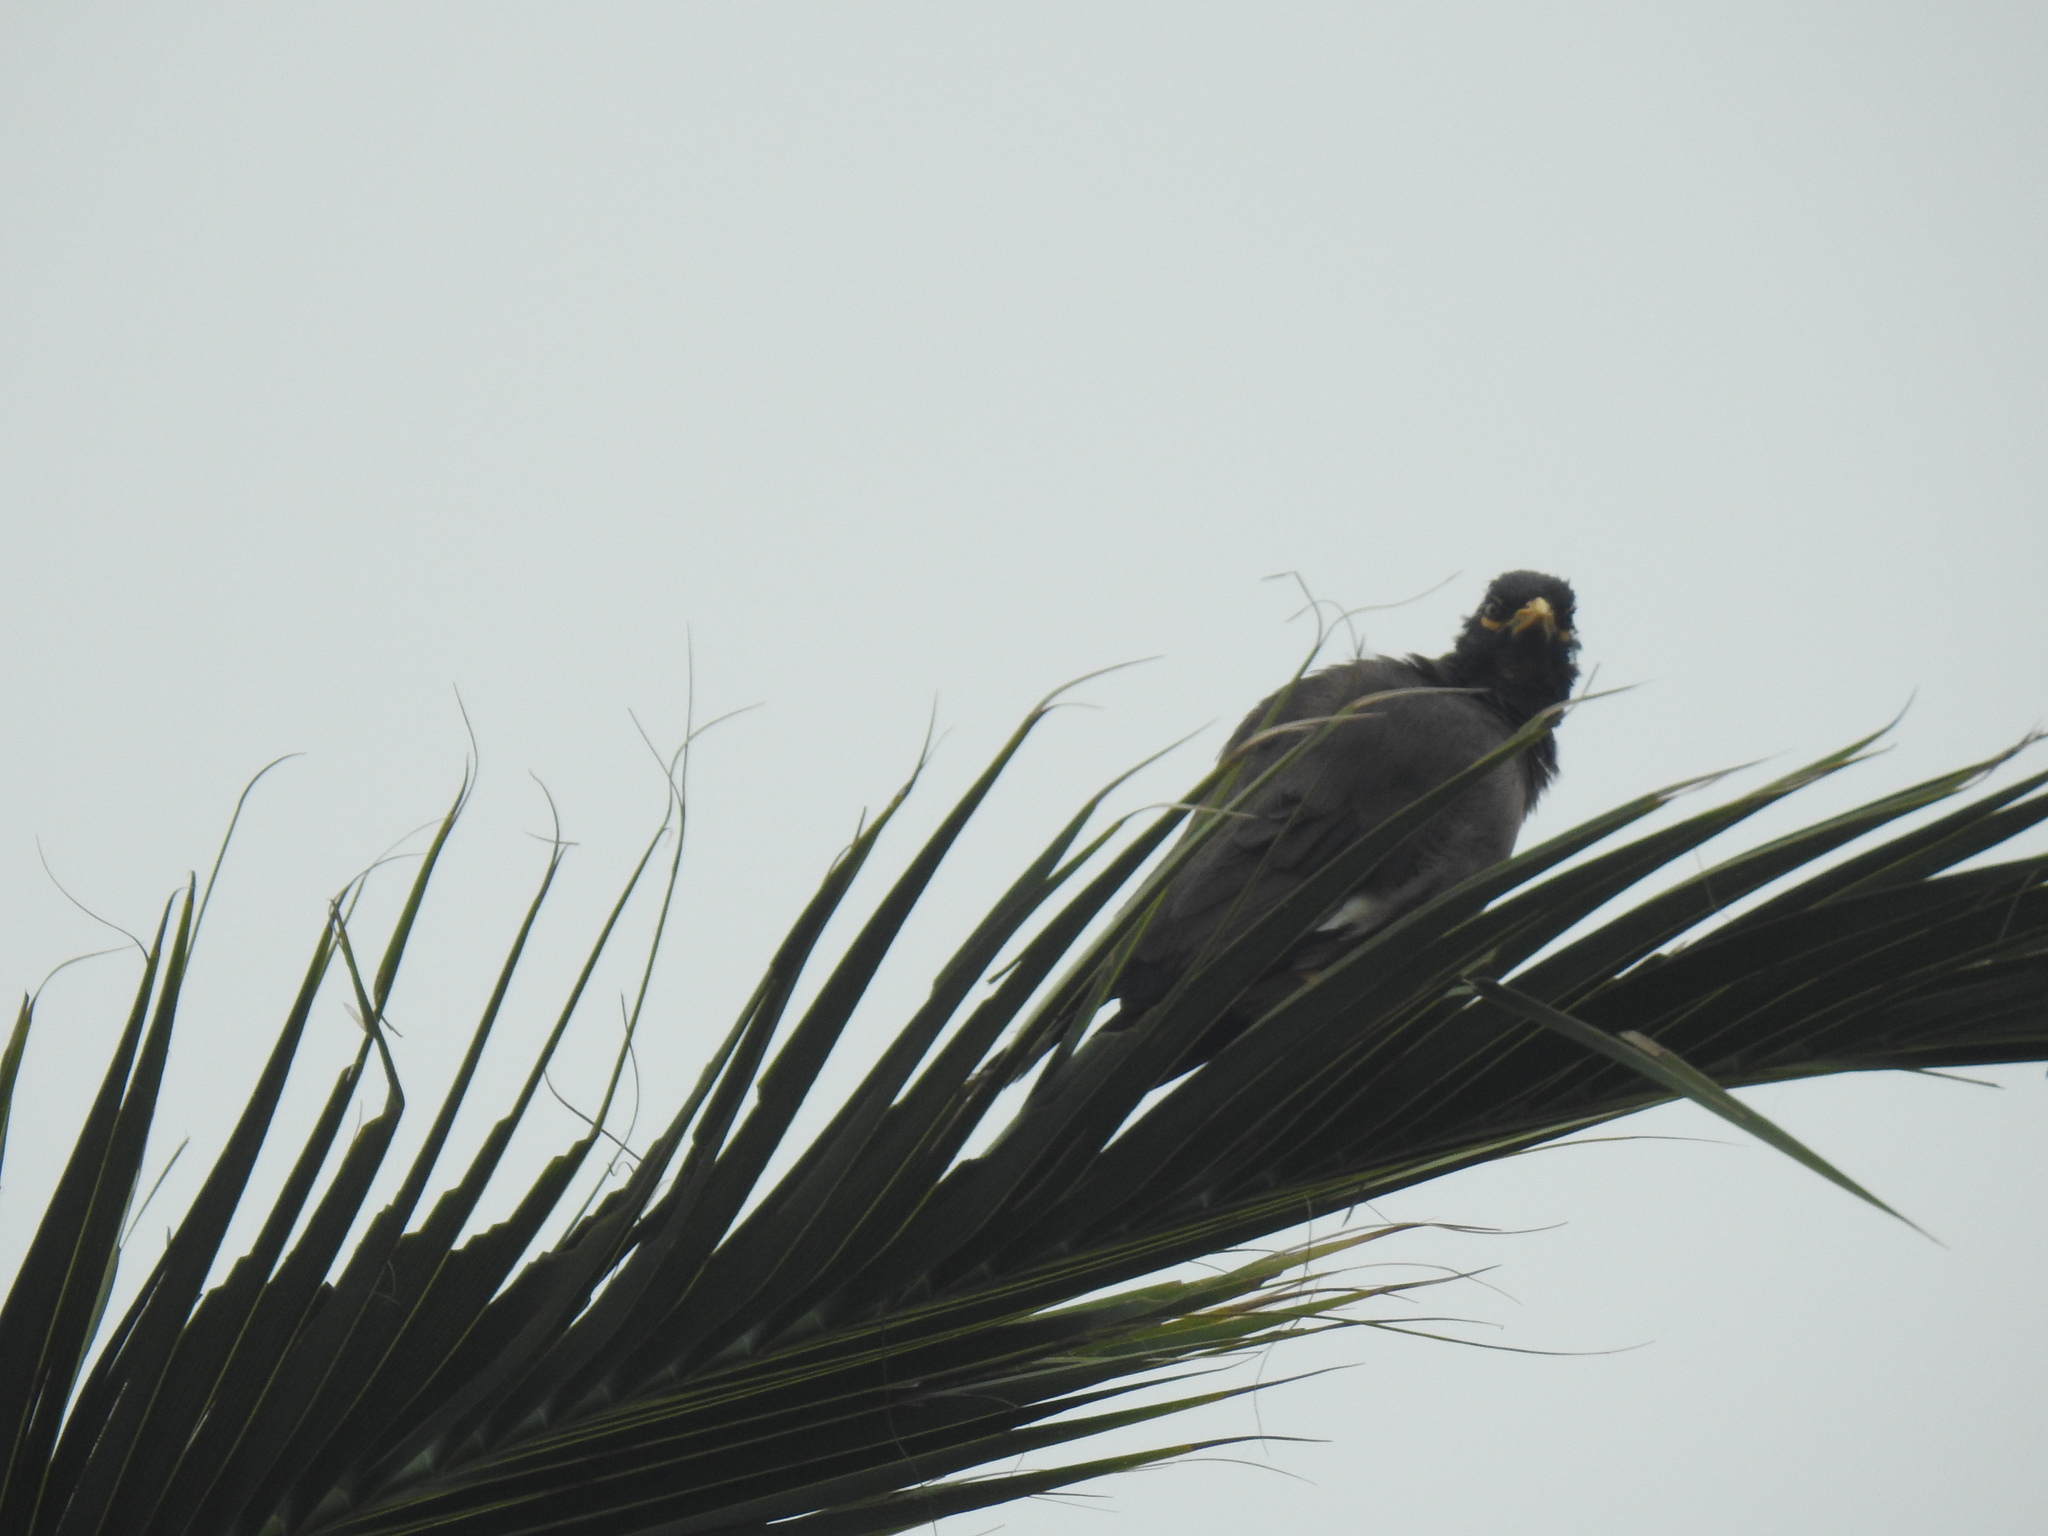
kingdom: Animalia
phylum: Chordata
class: Aves
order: Passeriformes
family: Sturnidae
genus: Acridotheres
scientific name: Acridotheres tristis
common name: Common myna
